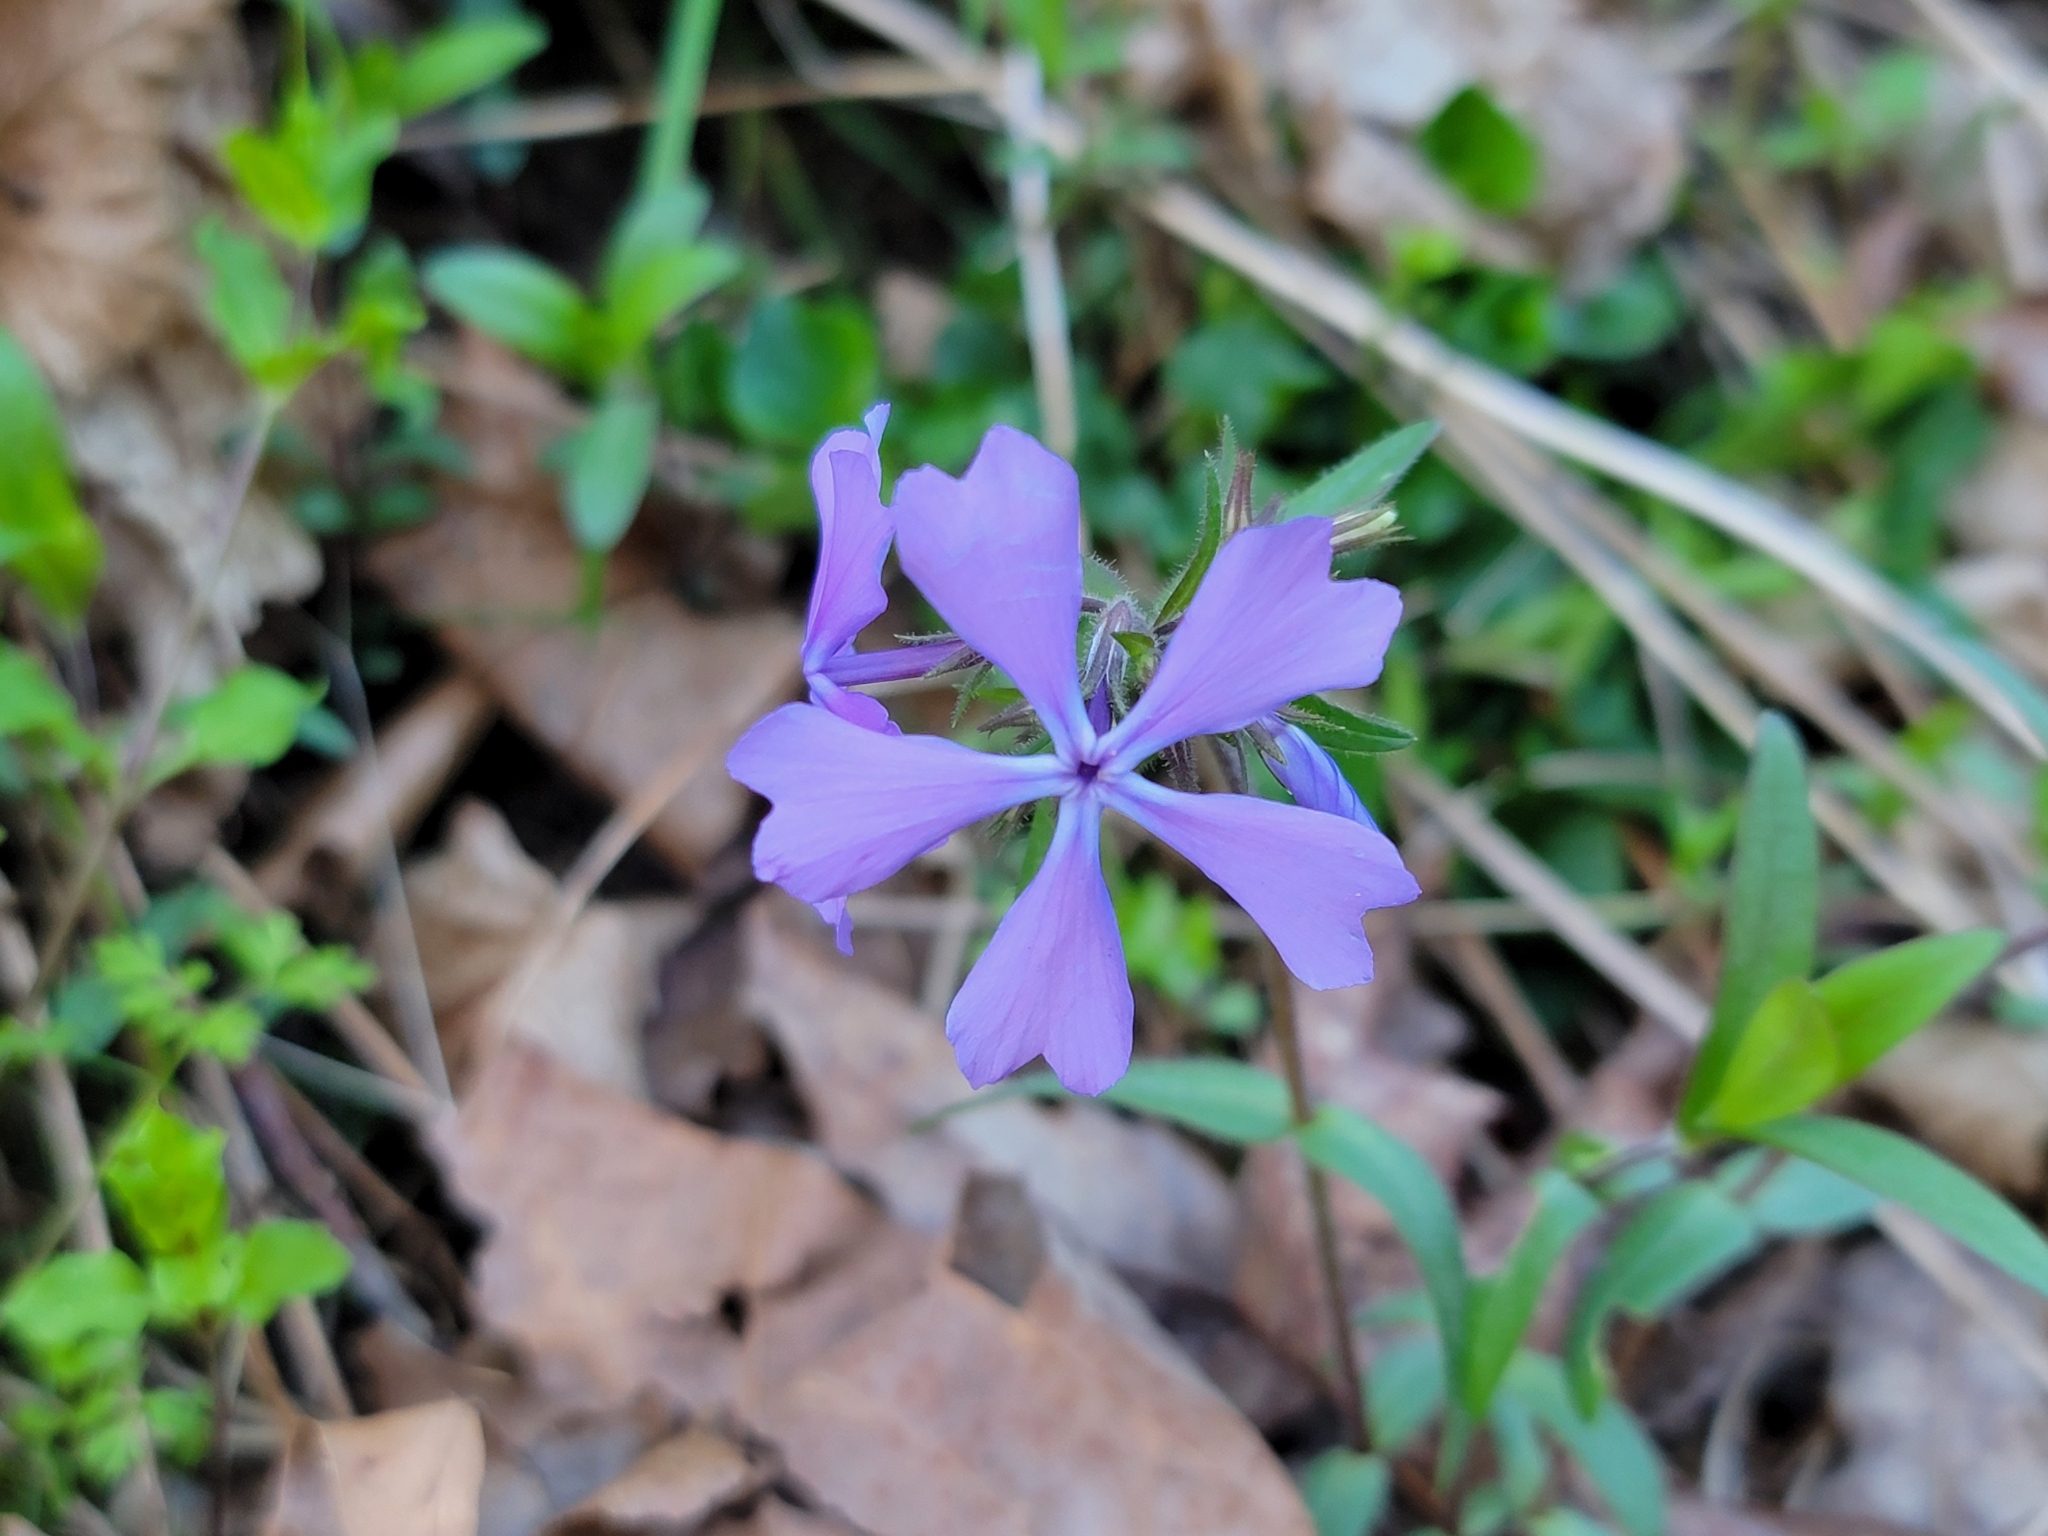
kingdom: Plantae
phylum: Tracheophyta
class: Magnoliopsida
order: Ericales
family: Polemoniaceae
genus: Phlox
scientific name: Phlox divaricata
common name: Blue phlox
